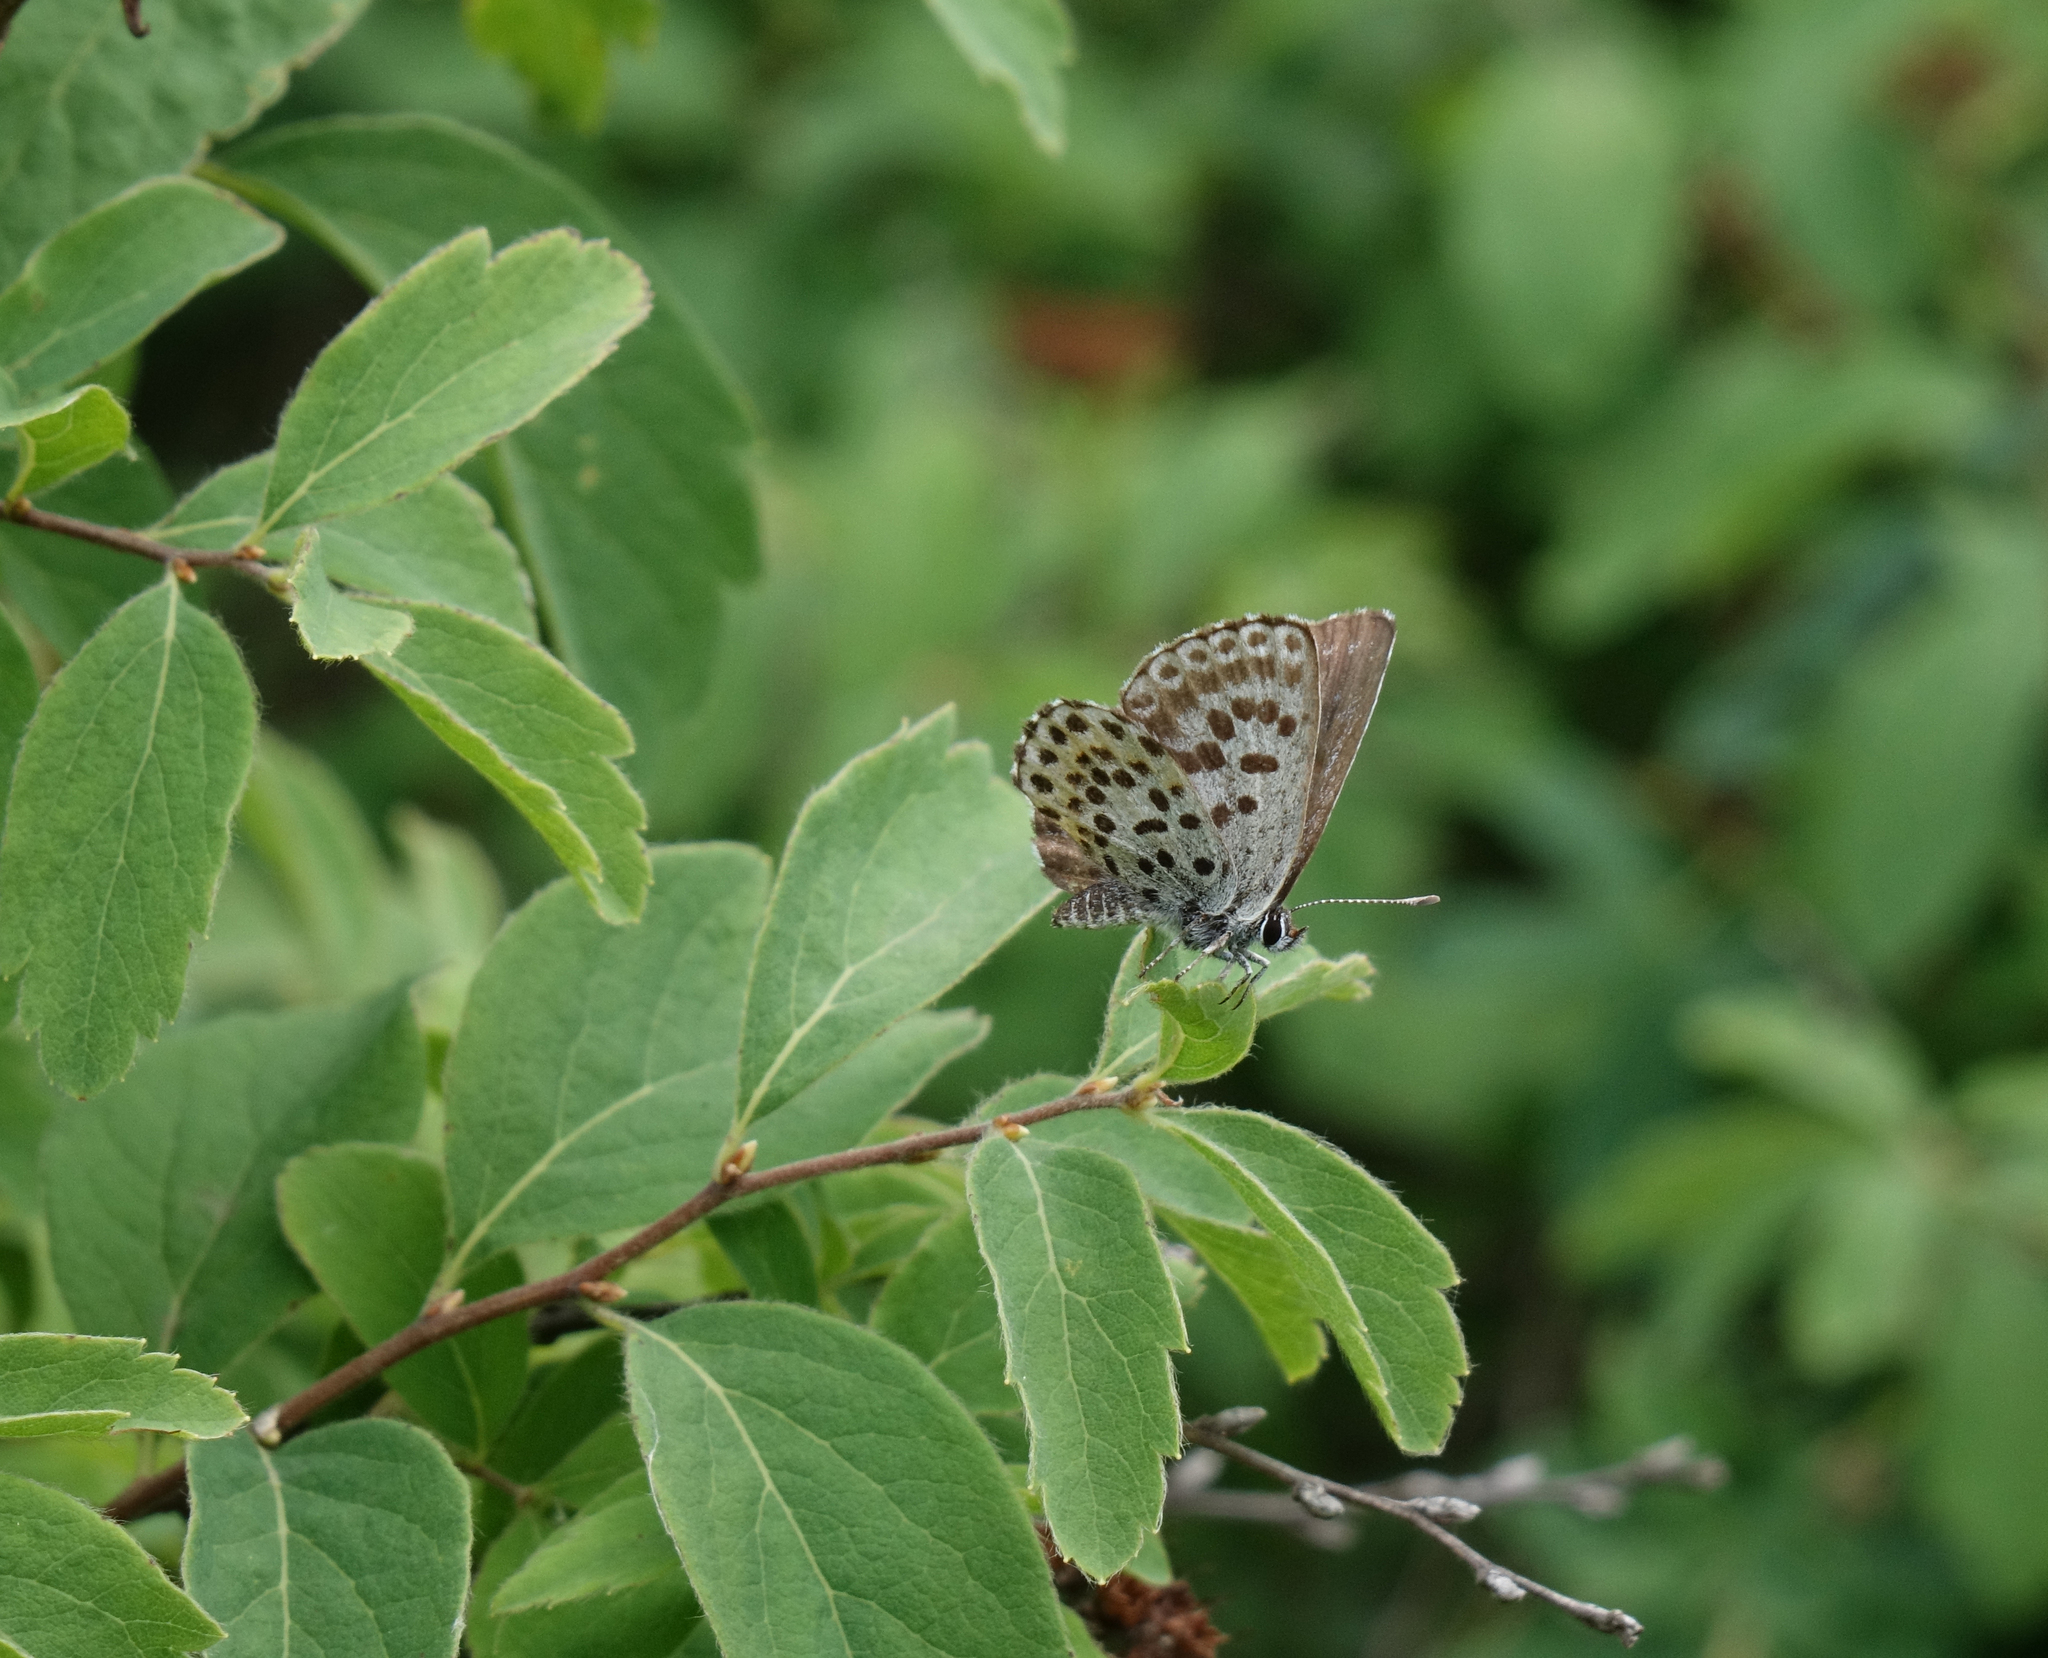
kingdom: Animalia
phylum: Arthropoda
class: Insecta
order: Lepidoptera
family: Lycaenidae
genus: Scolitantides
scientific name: Scolitantides orion
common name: Chequered blue
